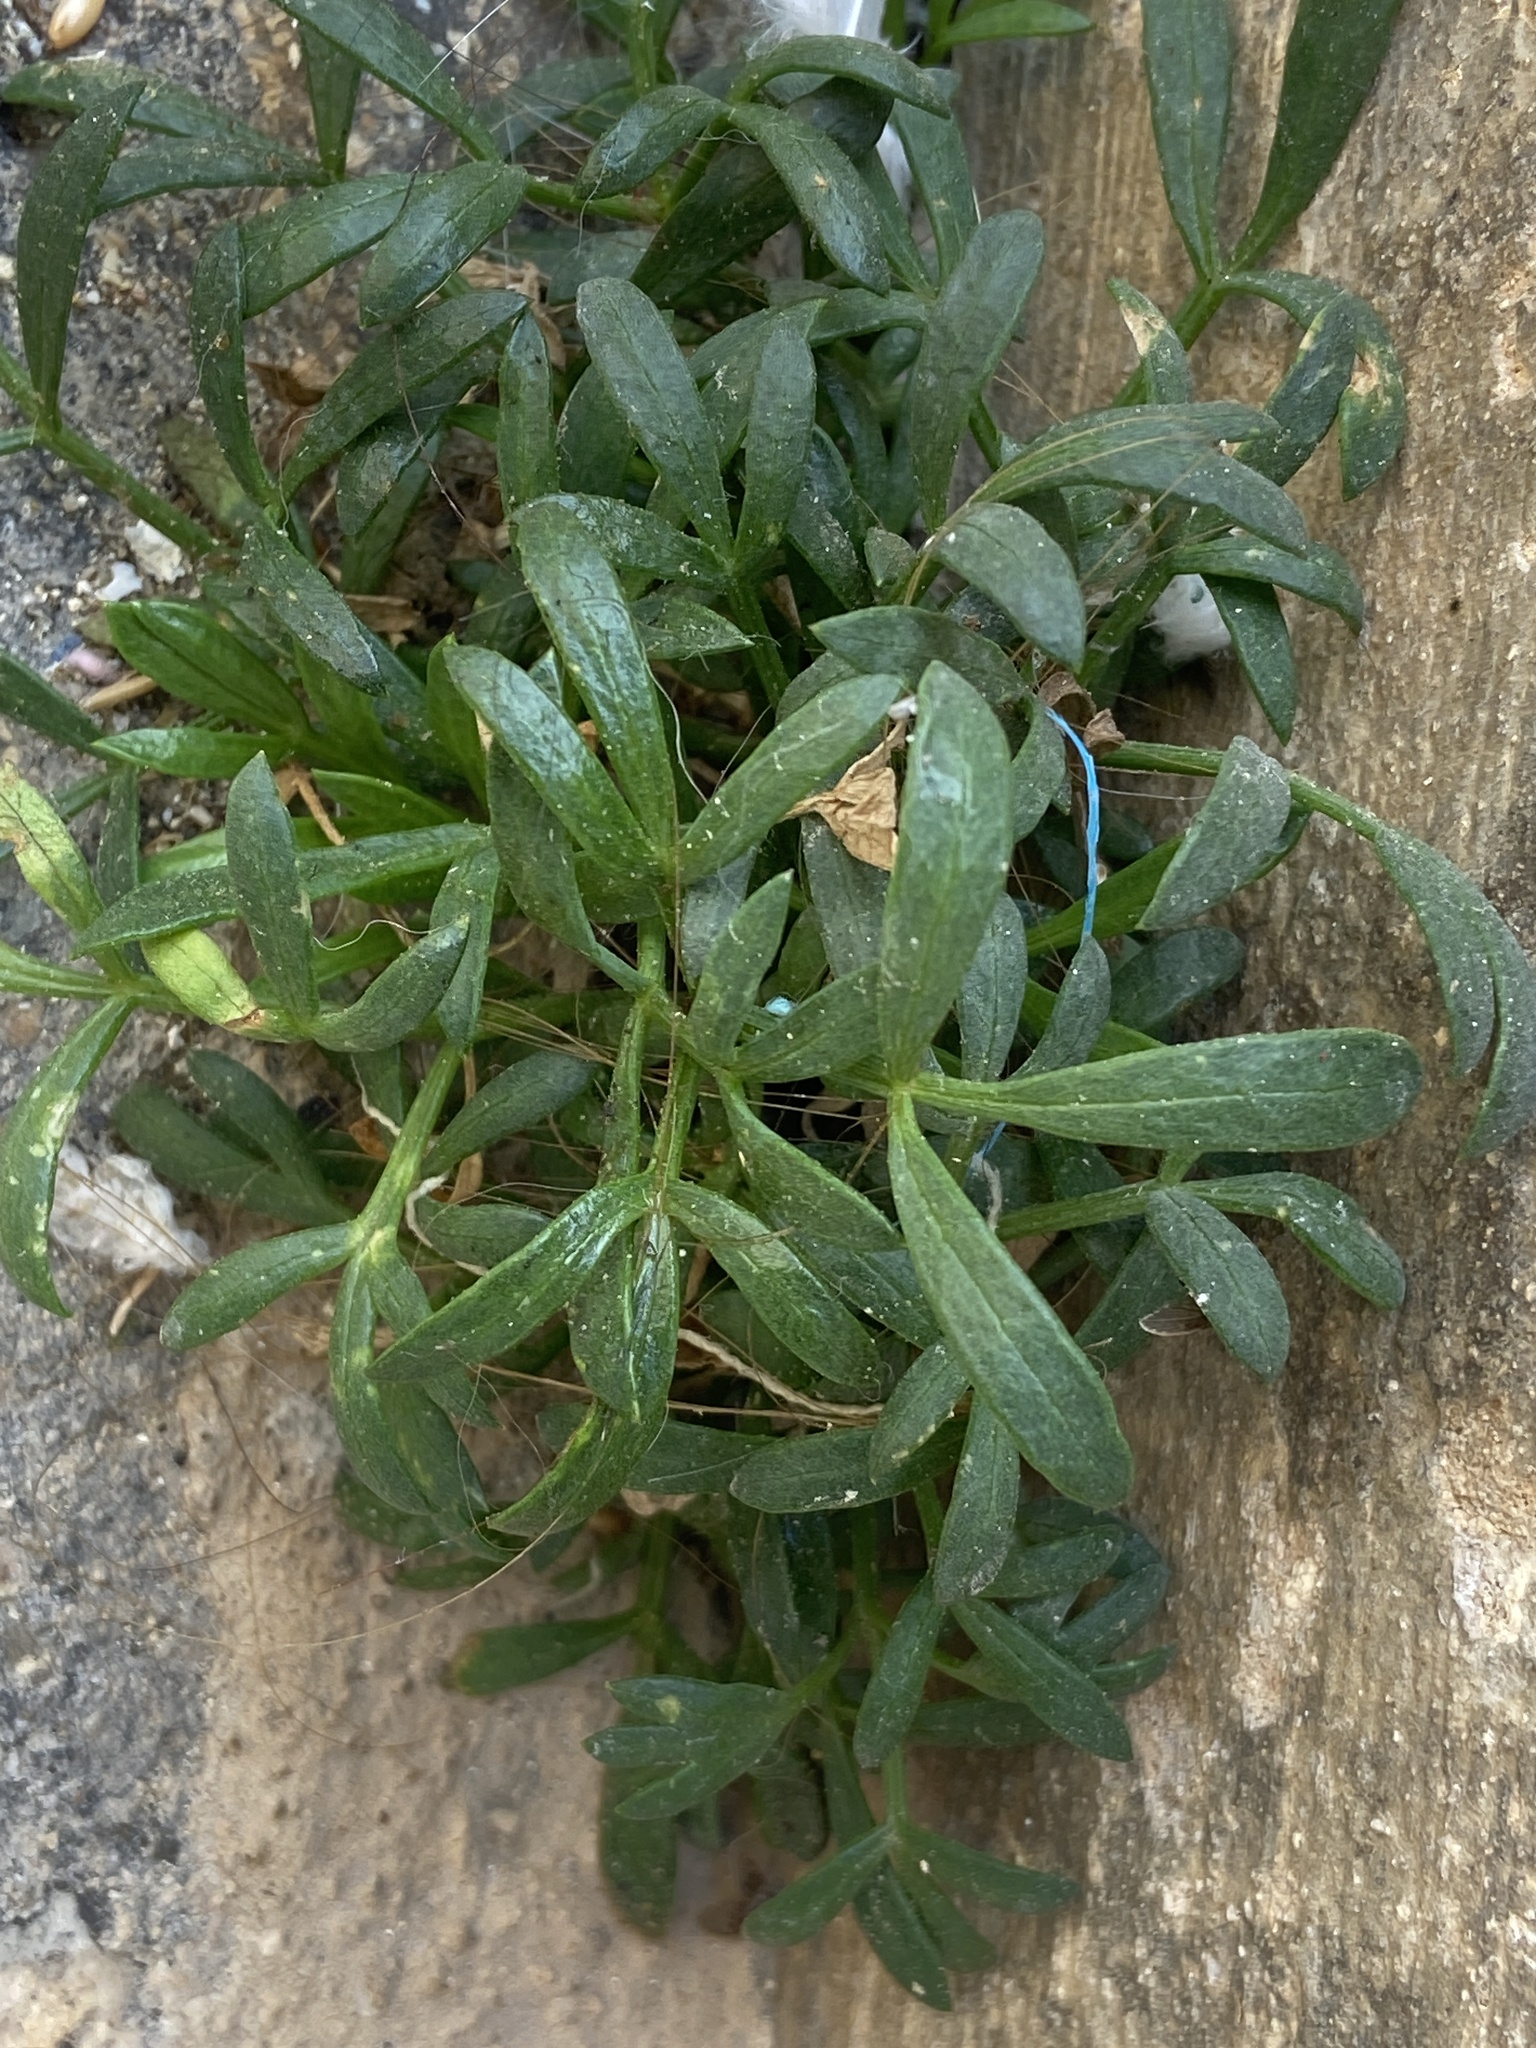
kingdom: Plantae
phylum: Tracheophyta
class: Magnoliopsida
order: Apiales
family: Apiaceae
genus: Crithmum
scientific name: Crithmum maritimum
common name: Rock samphire
